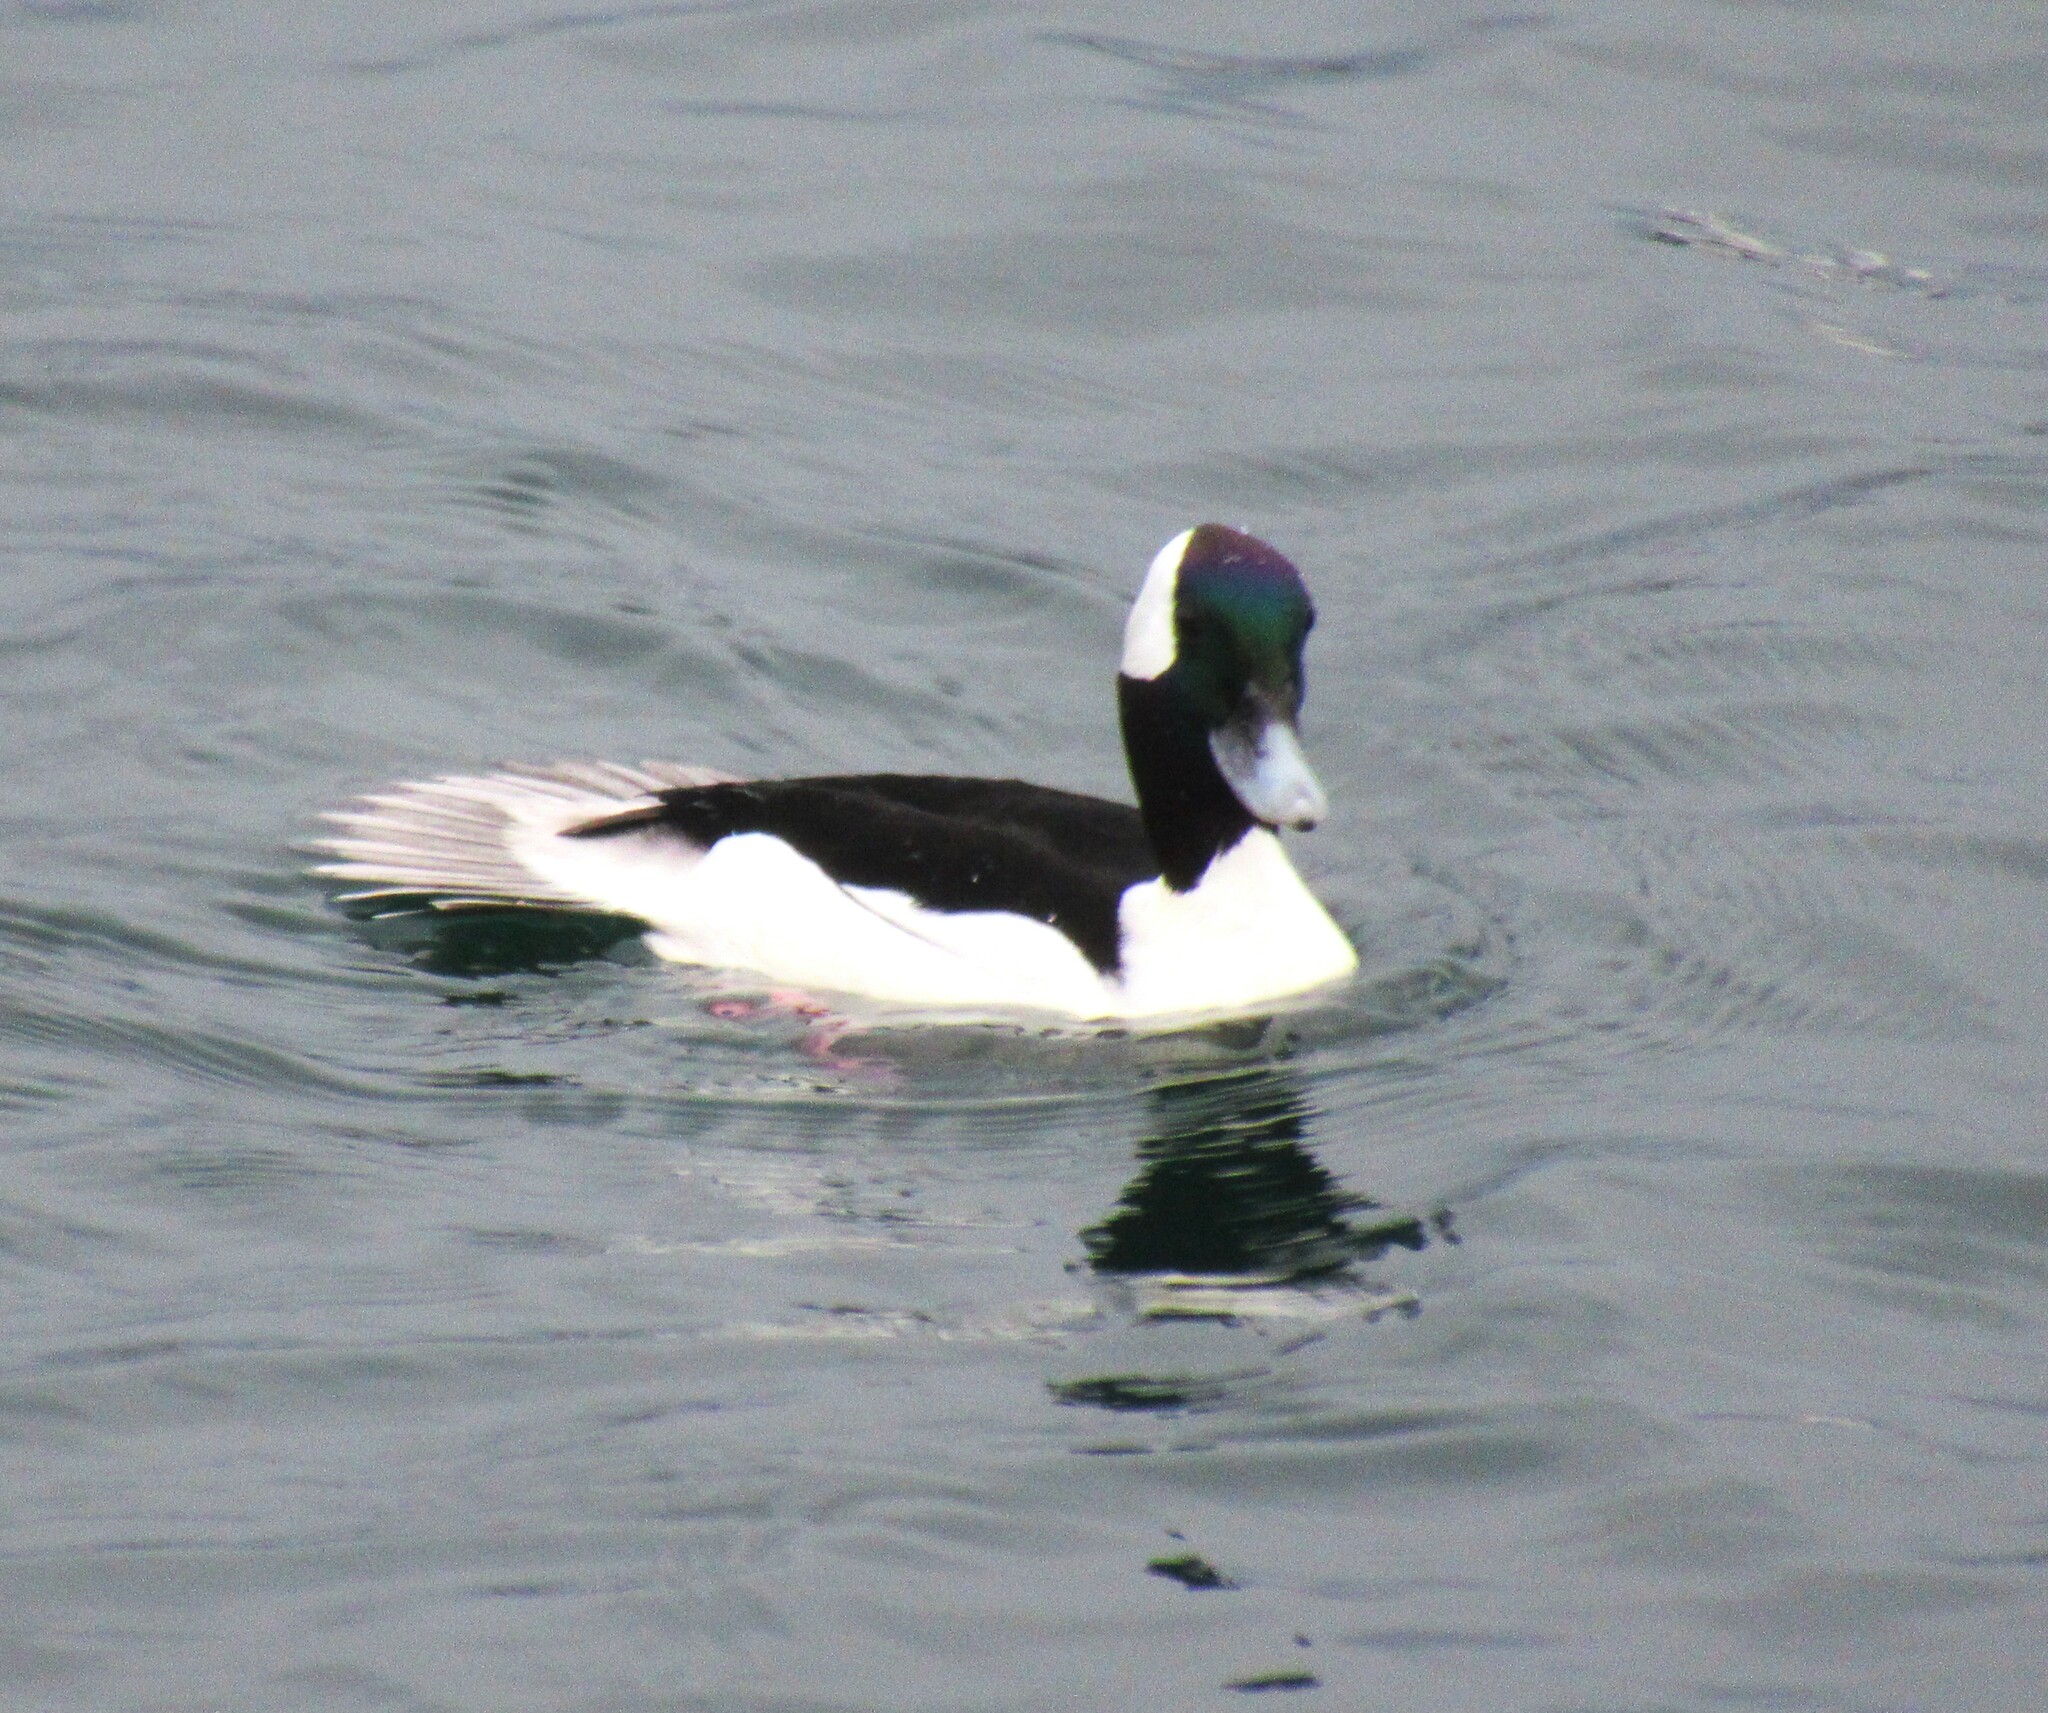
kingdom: Animalia
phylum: Chordata
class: Aves
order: Anseriformes
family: Anatidae
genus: Bucephala
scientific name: Bucephala albeola
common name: Bufflehead
